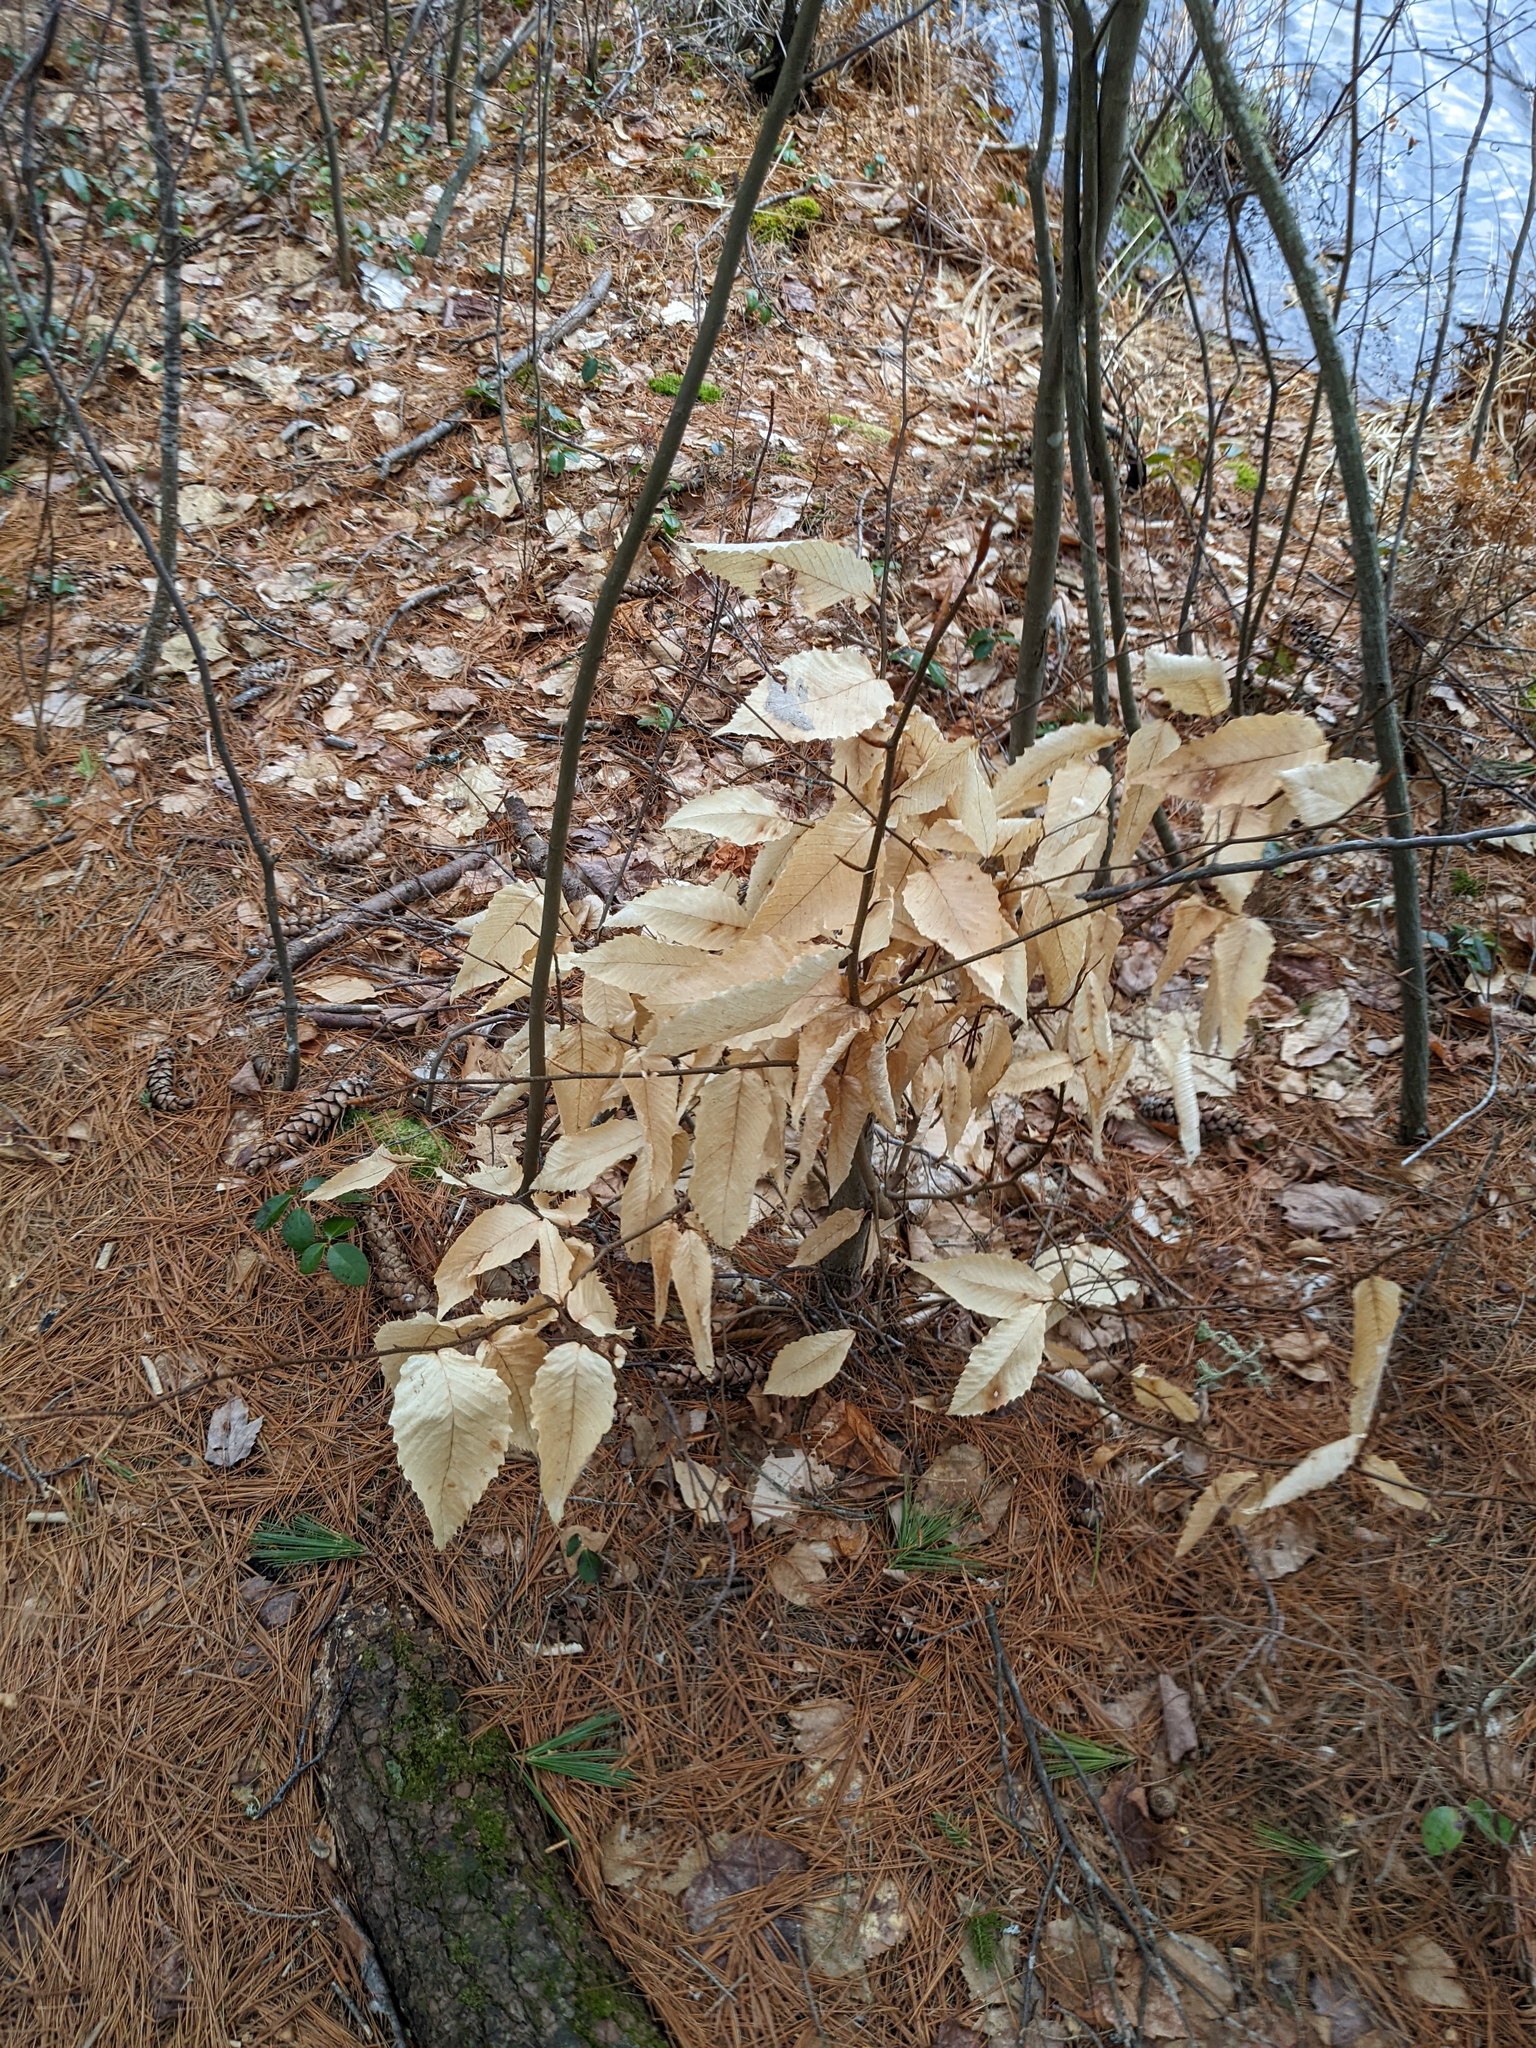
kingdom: Plantae
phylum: Tracheophyta
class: Magnoliopsida
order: Fagales
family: Fagaceae
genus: Fagus
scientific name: Fagus grandifolia
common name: American beech
